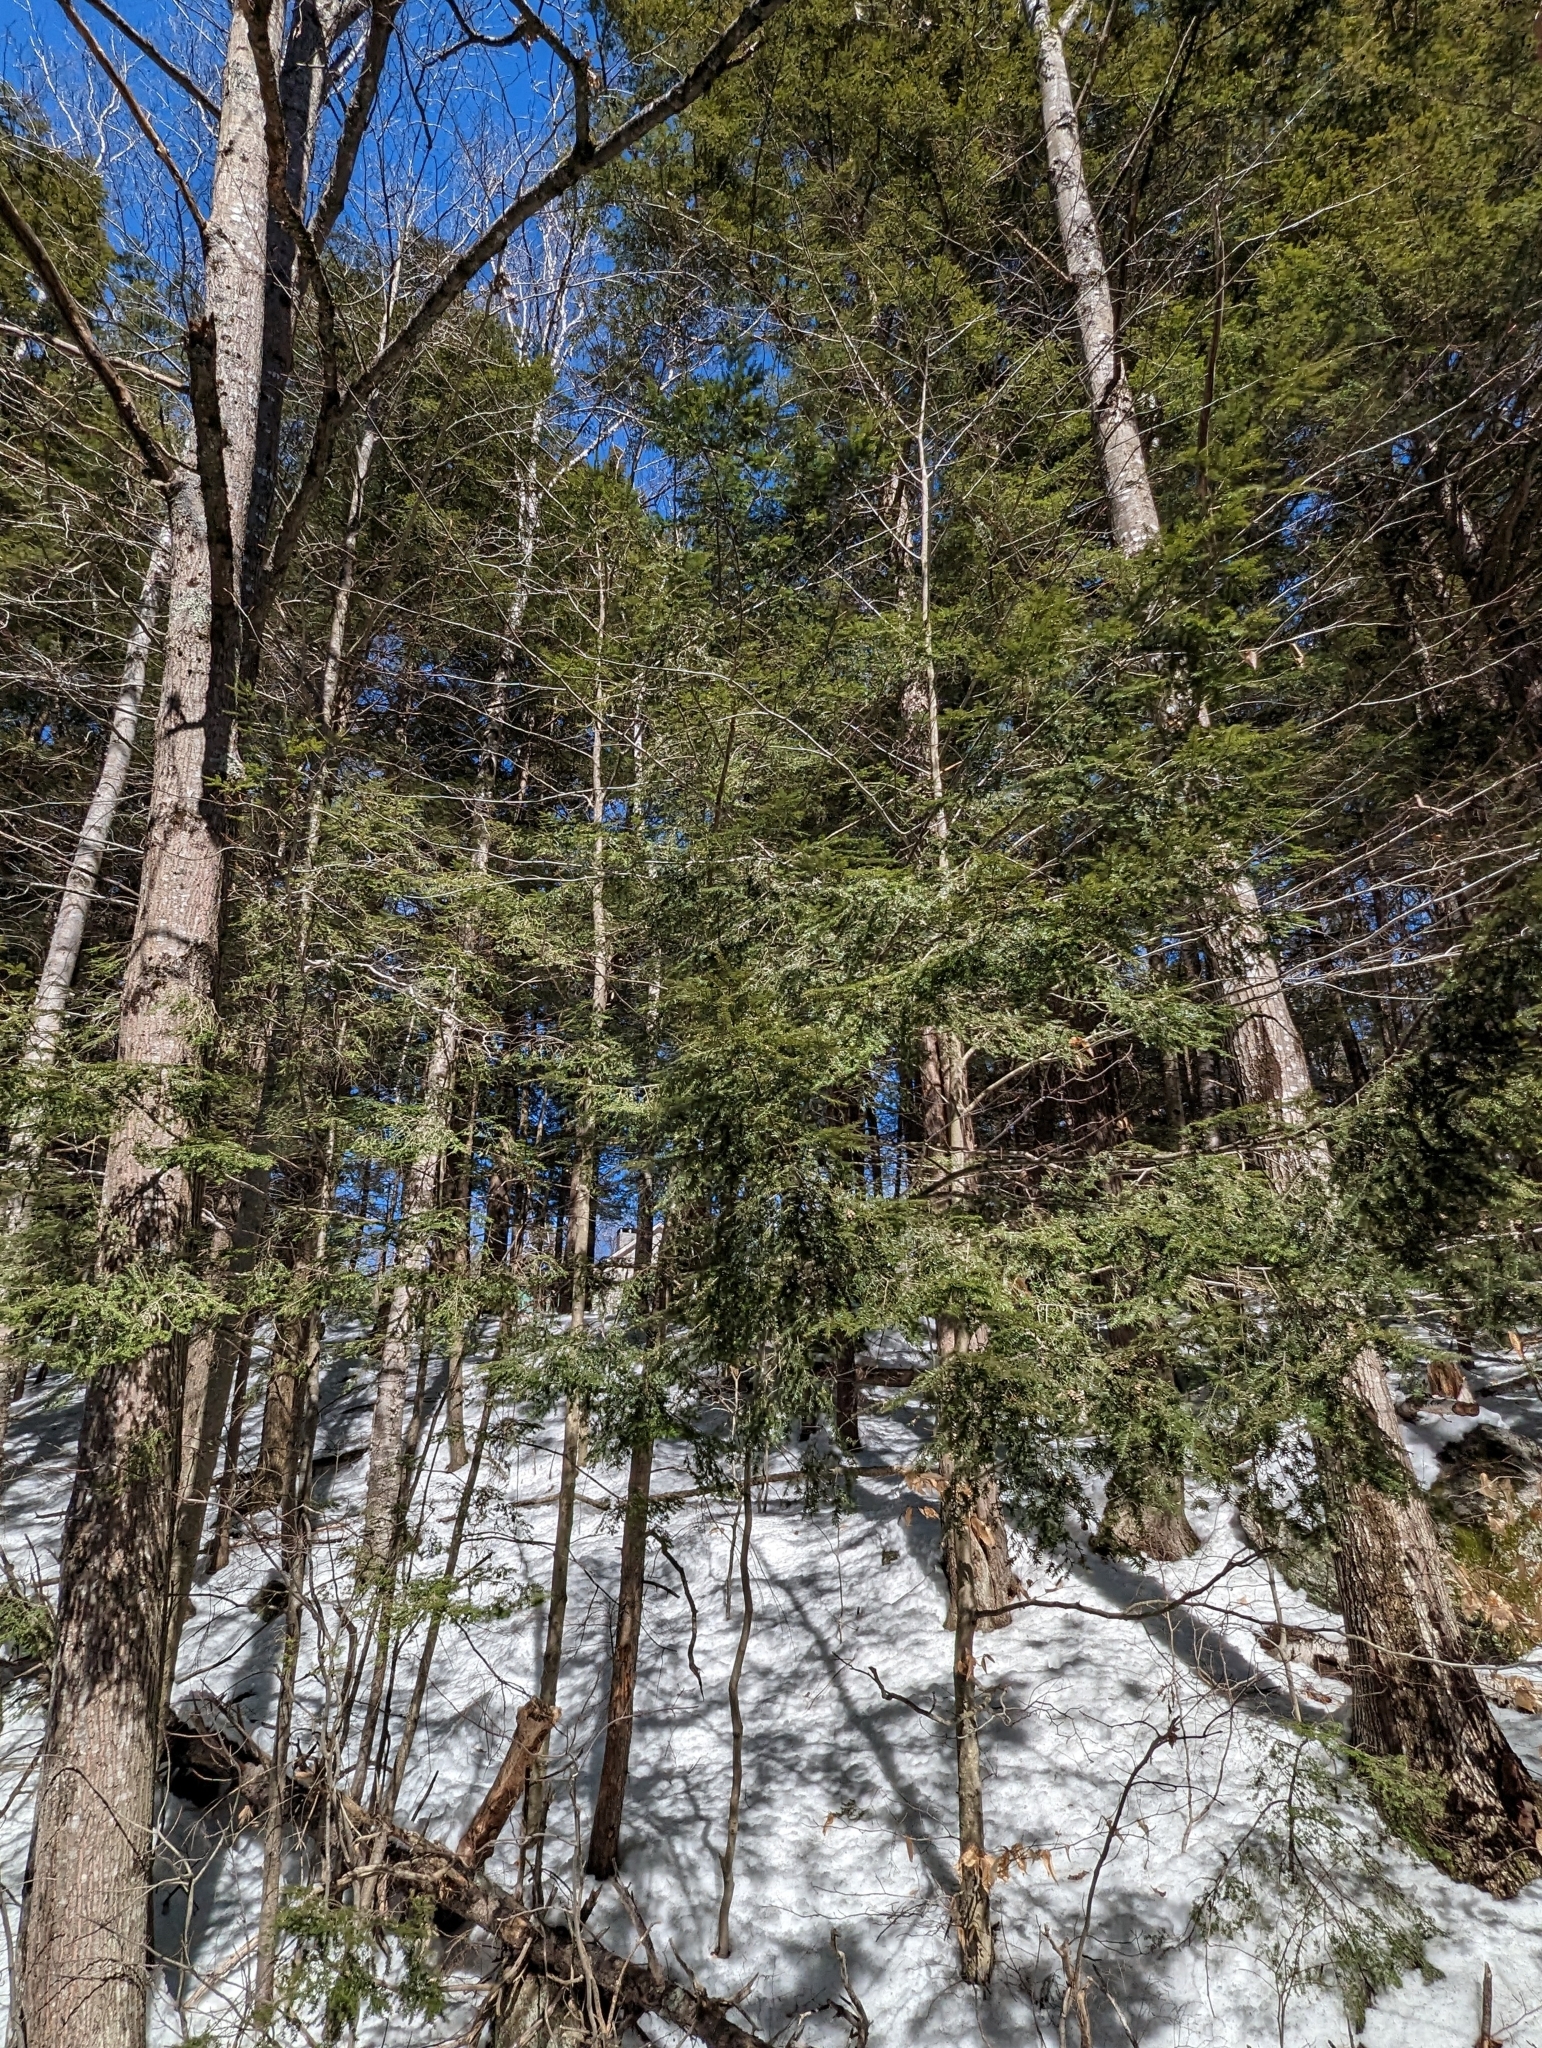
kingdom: Plantae
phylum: Tracheophyta
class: Pinopsida
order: Pinales
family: Pinaceae
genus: Tsuga
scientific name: Tsuga canadensis
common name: Eastern hemlock
